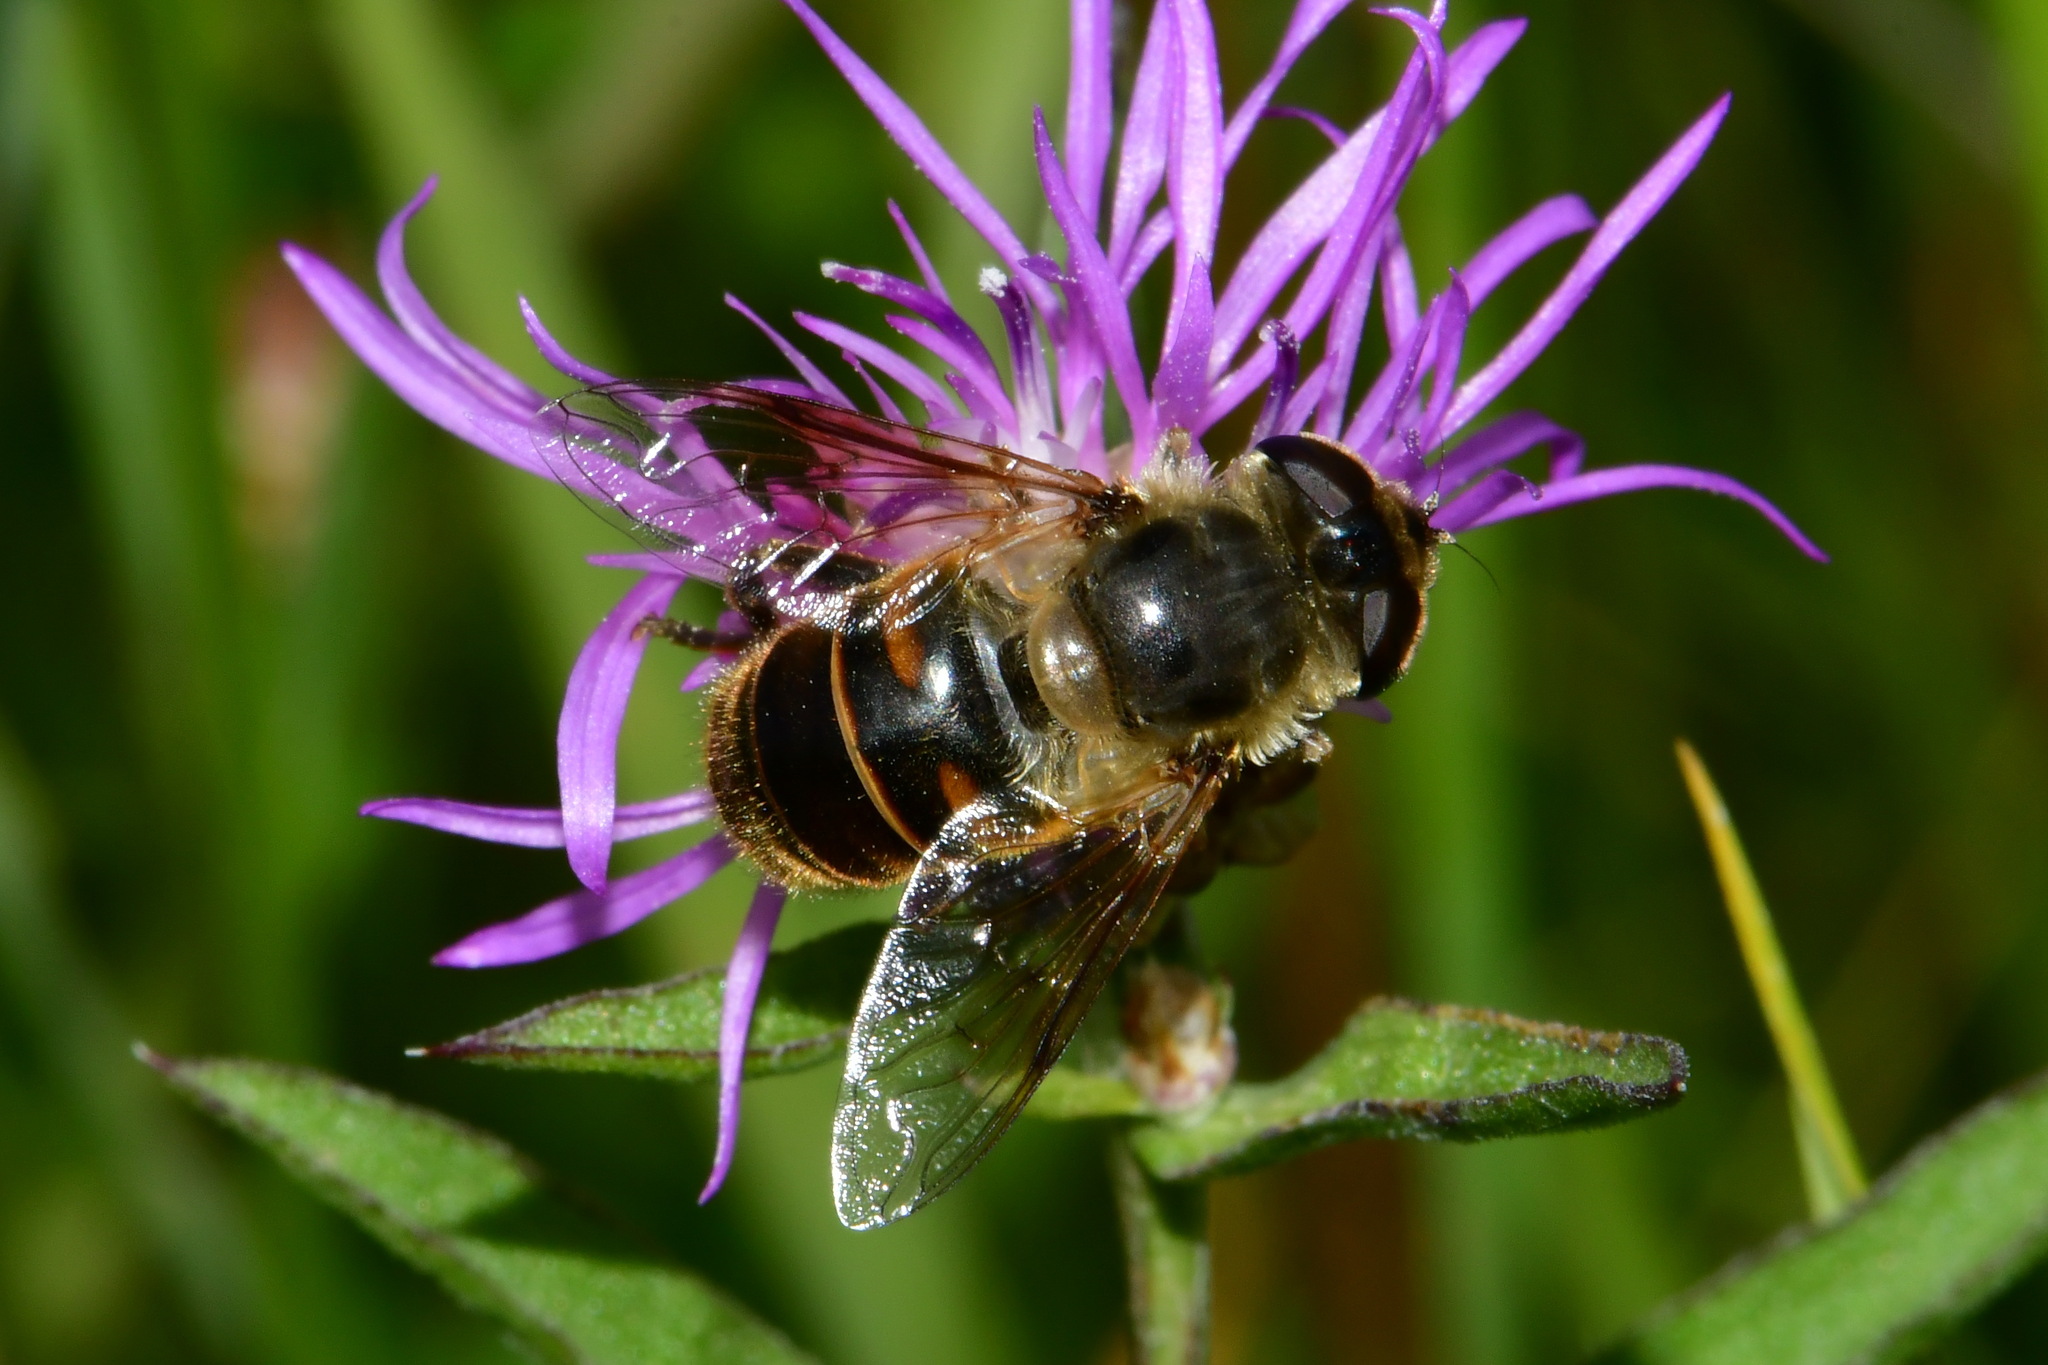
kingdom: Animalia
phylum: Arthropoda
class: Insecta
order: Diptera
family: Syrphidae
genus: Eristalis
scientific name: Eristalis tenax
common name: Drone fly
